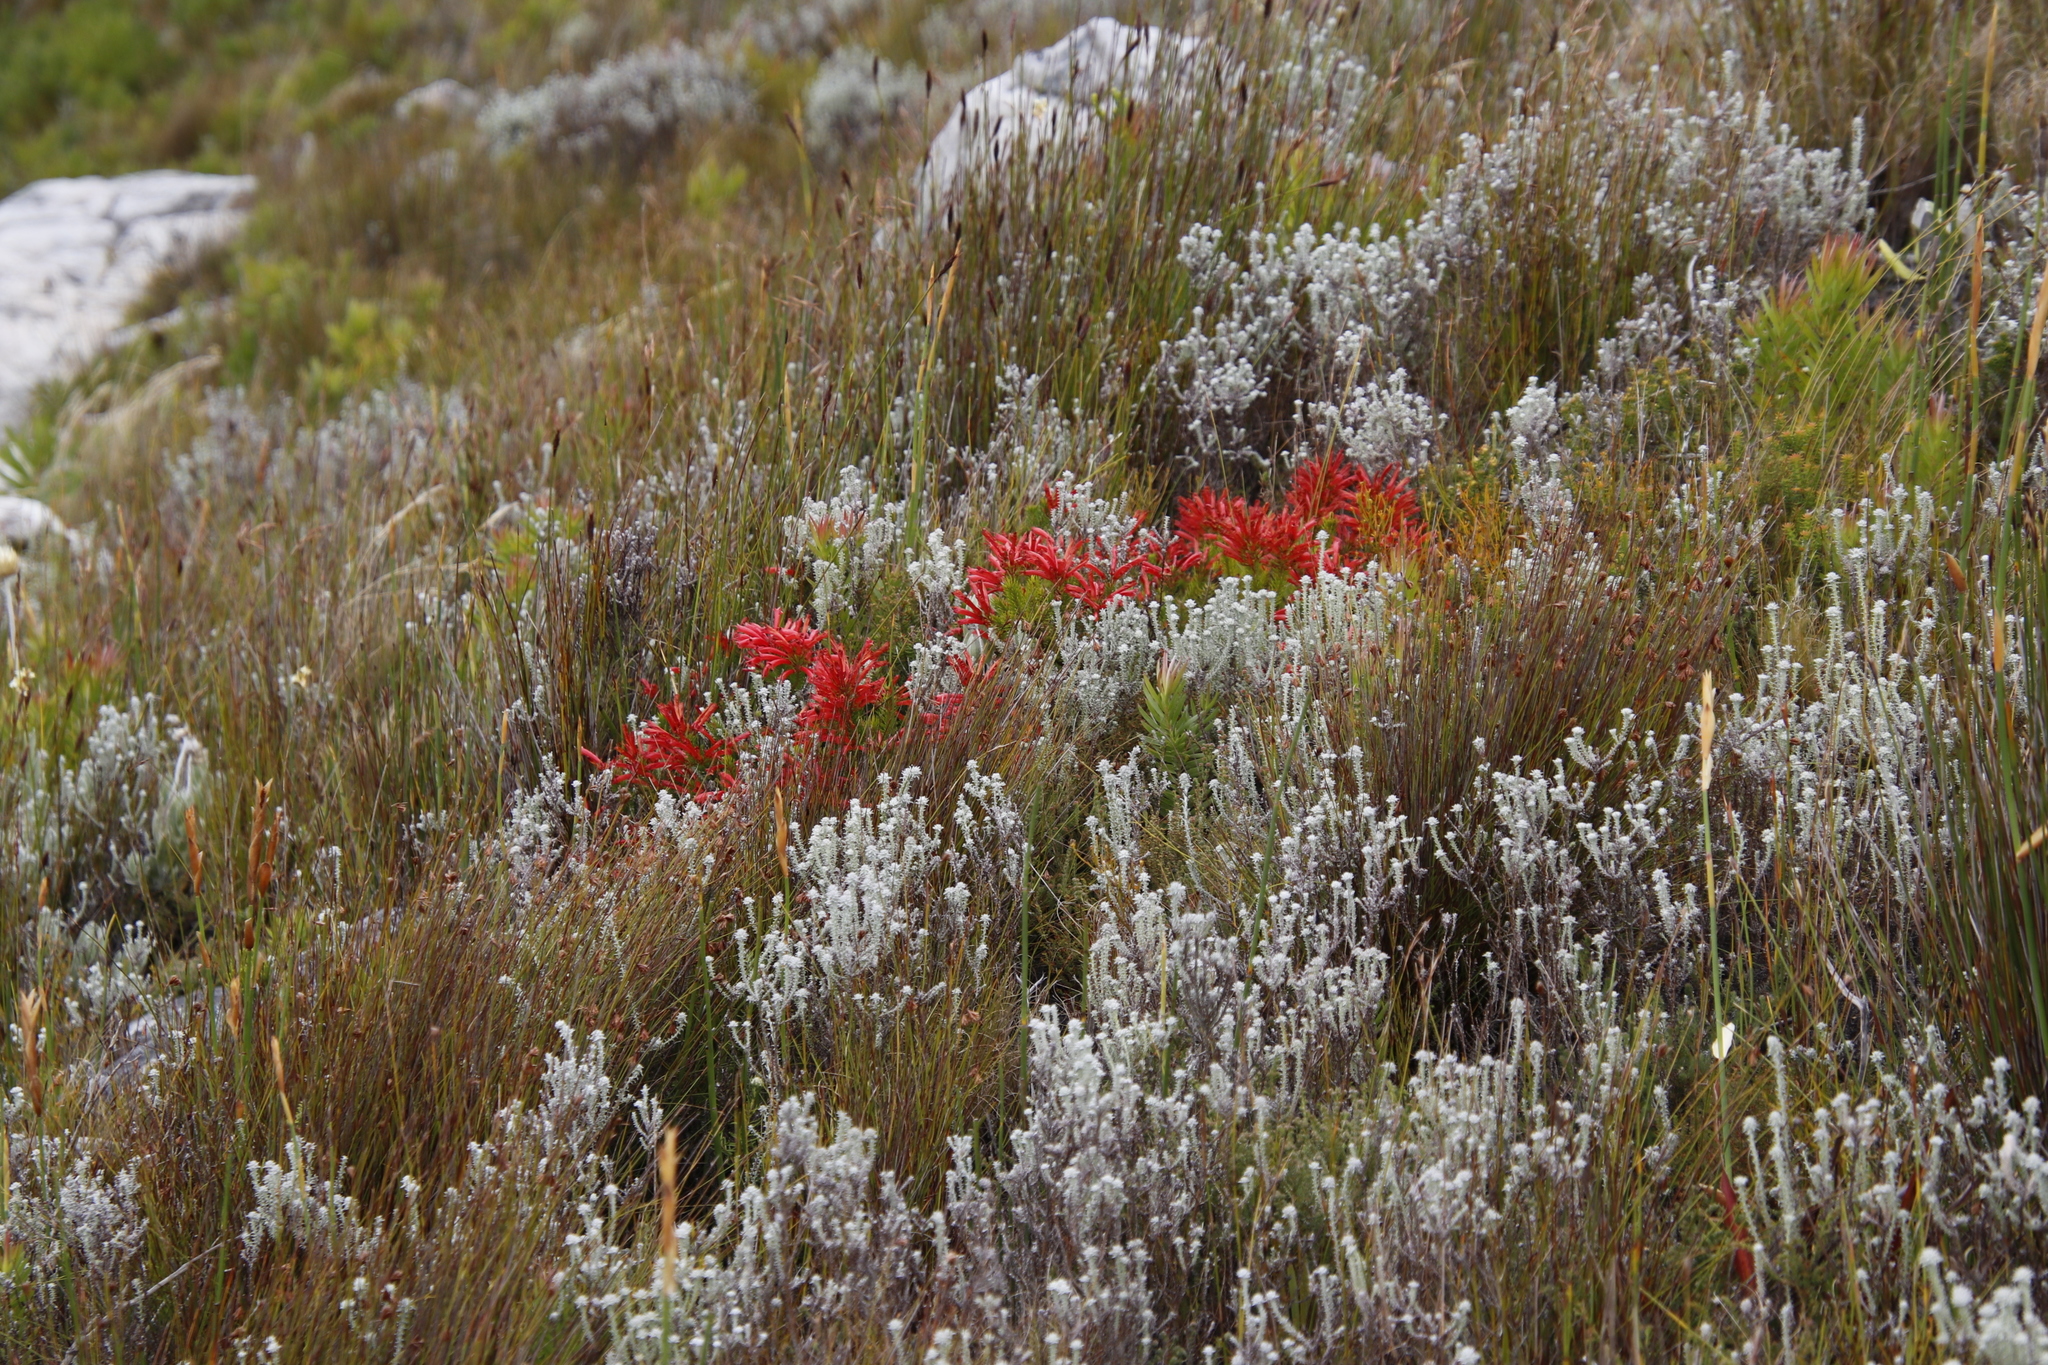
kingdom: Plantae
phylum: Tracheophyta
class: Magnoliopsida
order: Ericales
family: Ericaceae
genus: Erica
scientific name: Erica nevillei
